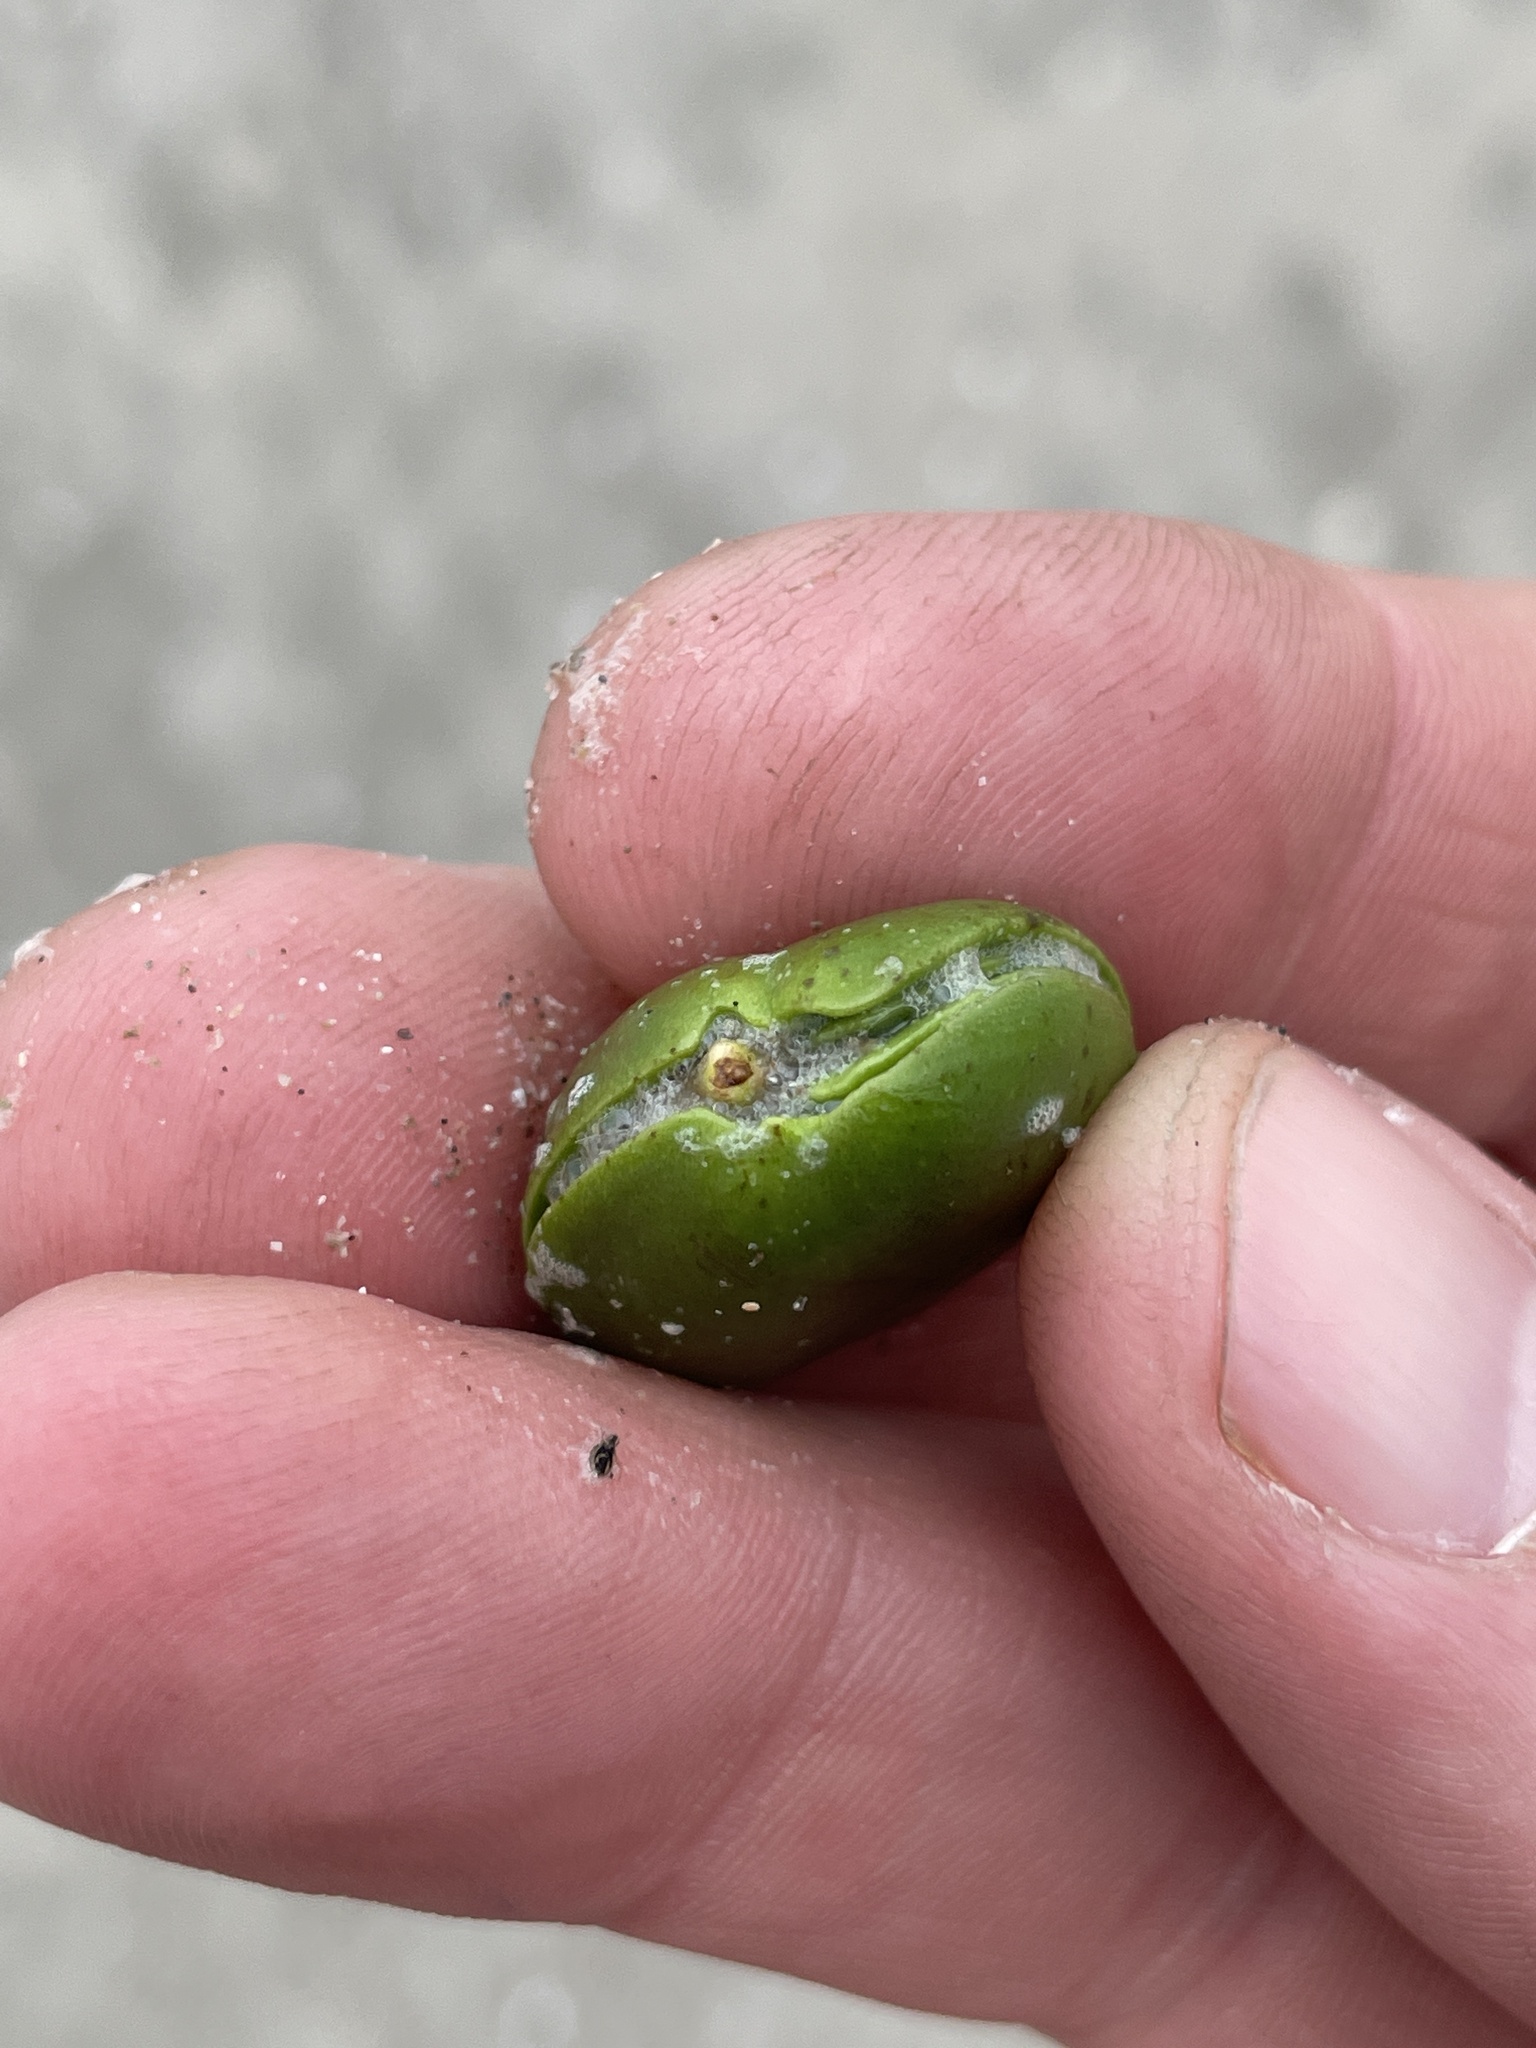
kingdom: Plantae
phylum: Tracheophyta
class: Magnoliopsida
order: Lamiales
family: Acanthaceae
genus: Avicennia
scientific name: Avicennia germinans
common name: Black mangrove
